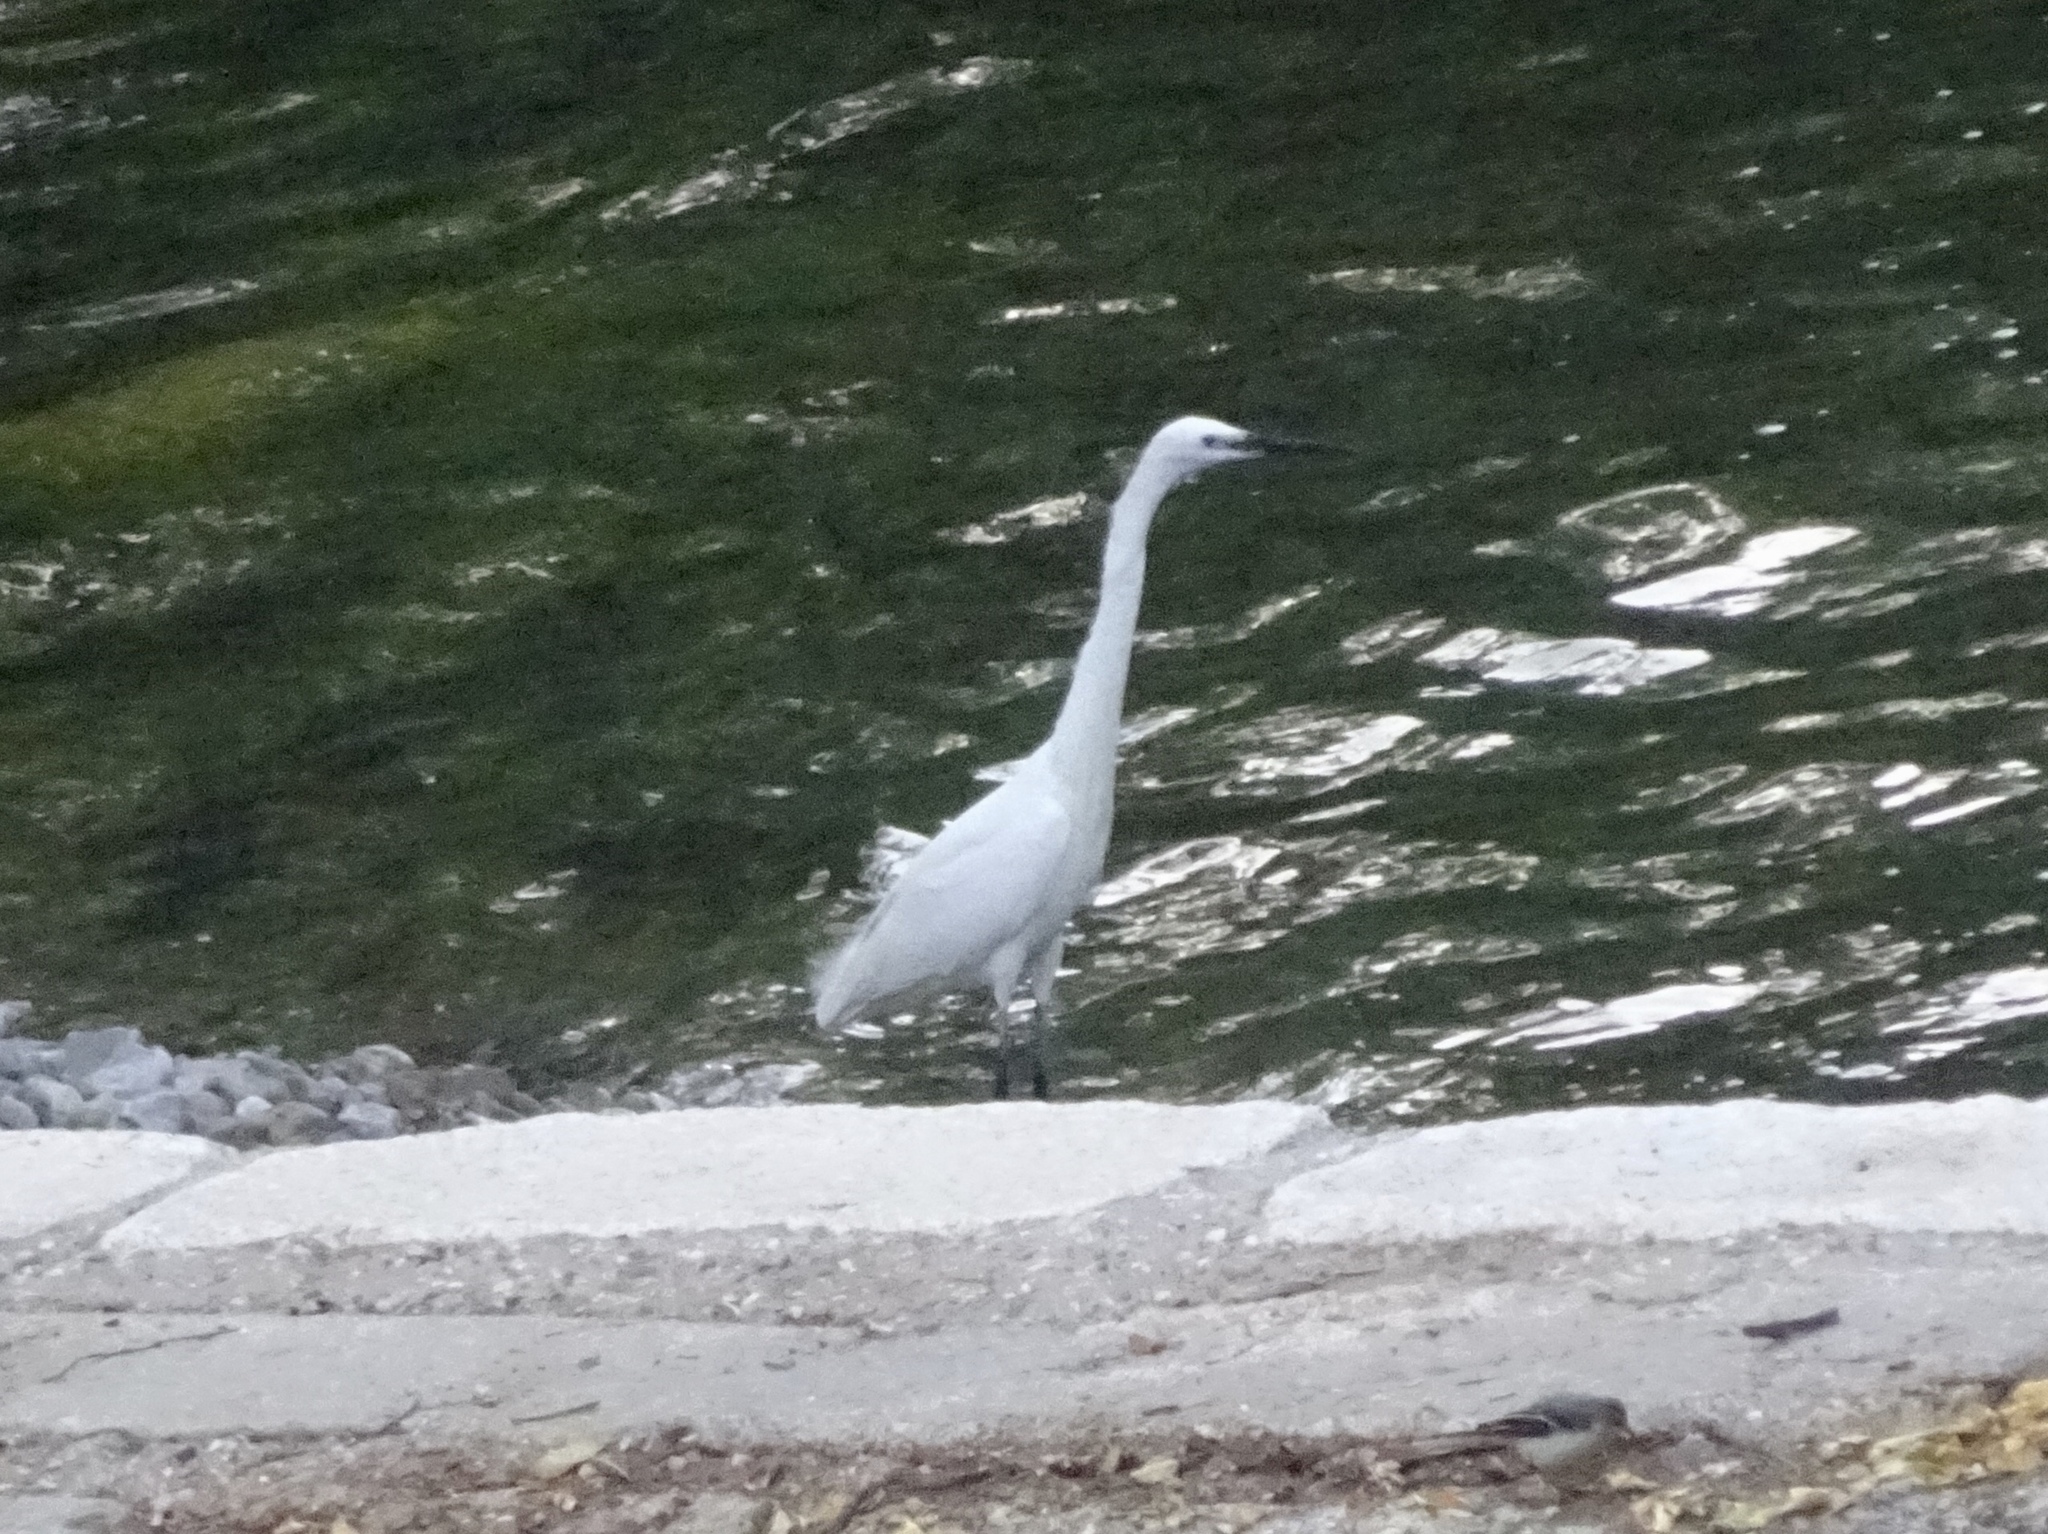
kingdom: Animalia
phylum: Chordata
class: Aves
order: Pelecaniformes
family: Ardeidae
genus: Egretta
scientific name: Egretta garzetta
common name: Little egret
